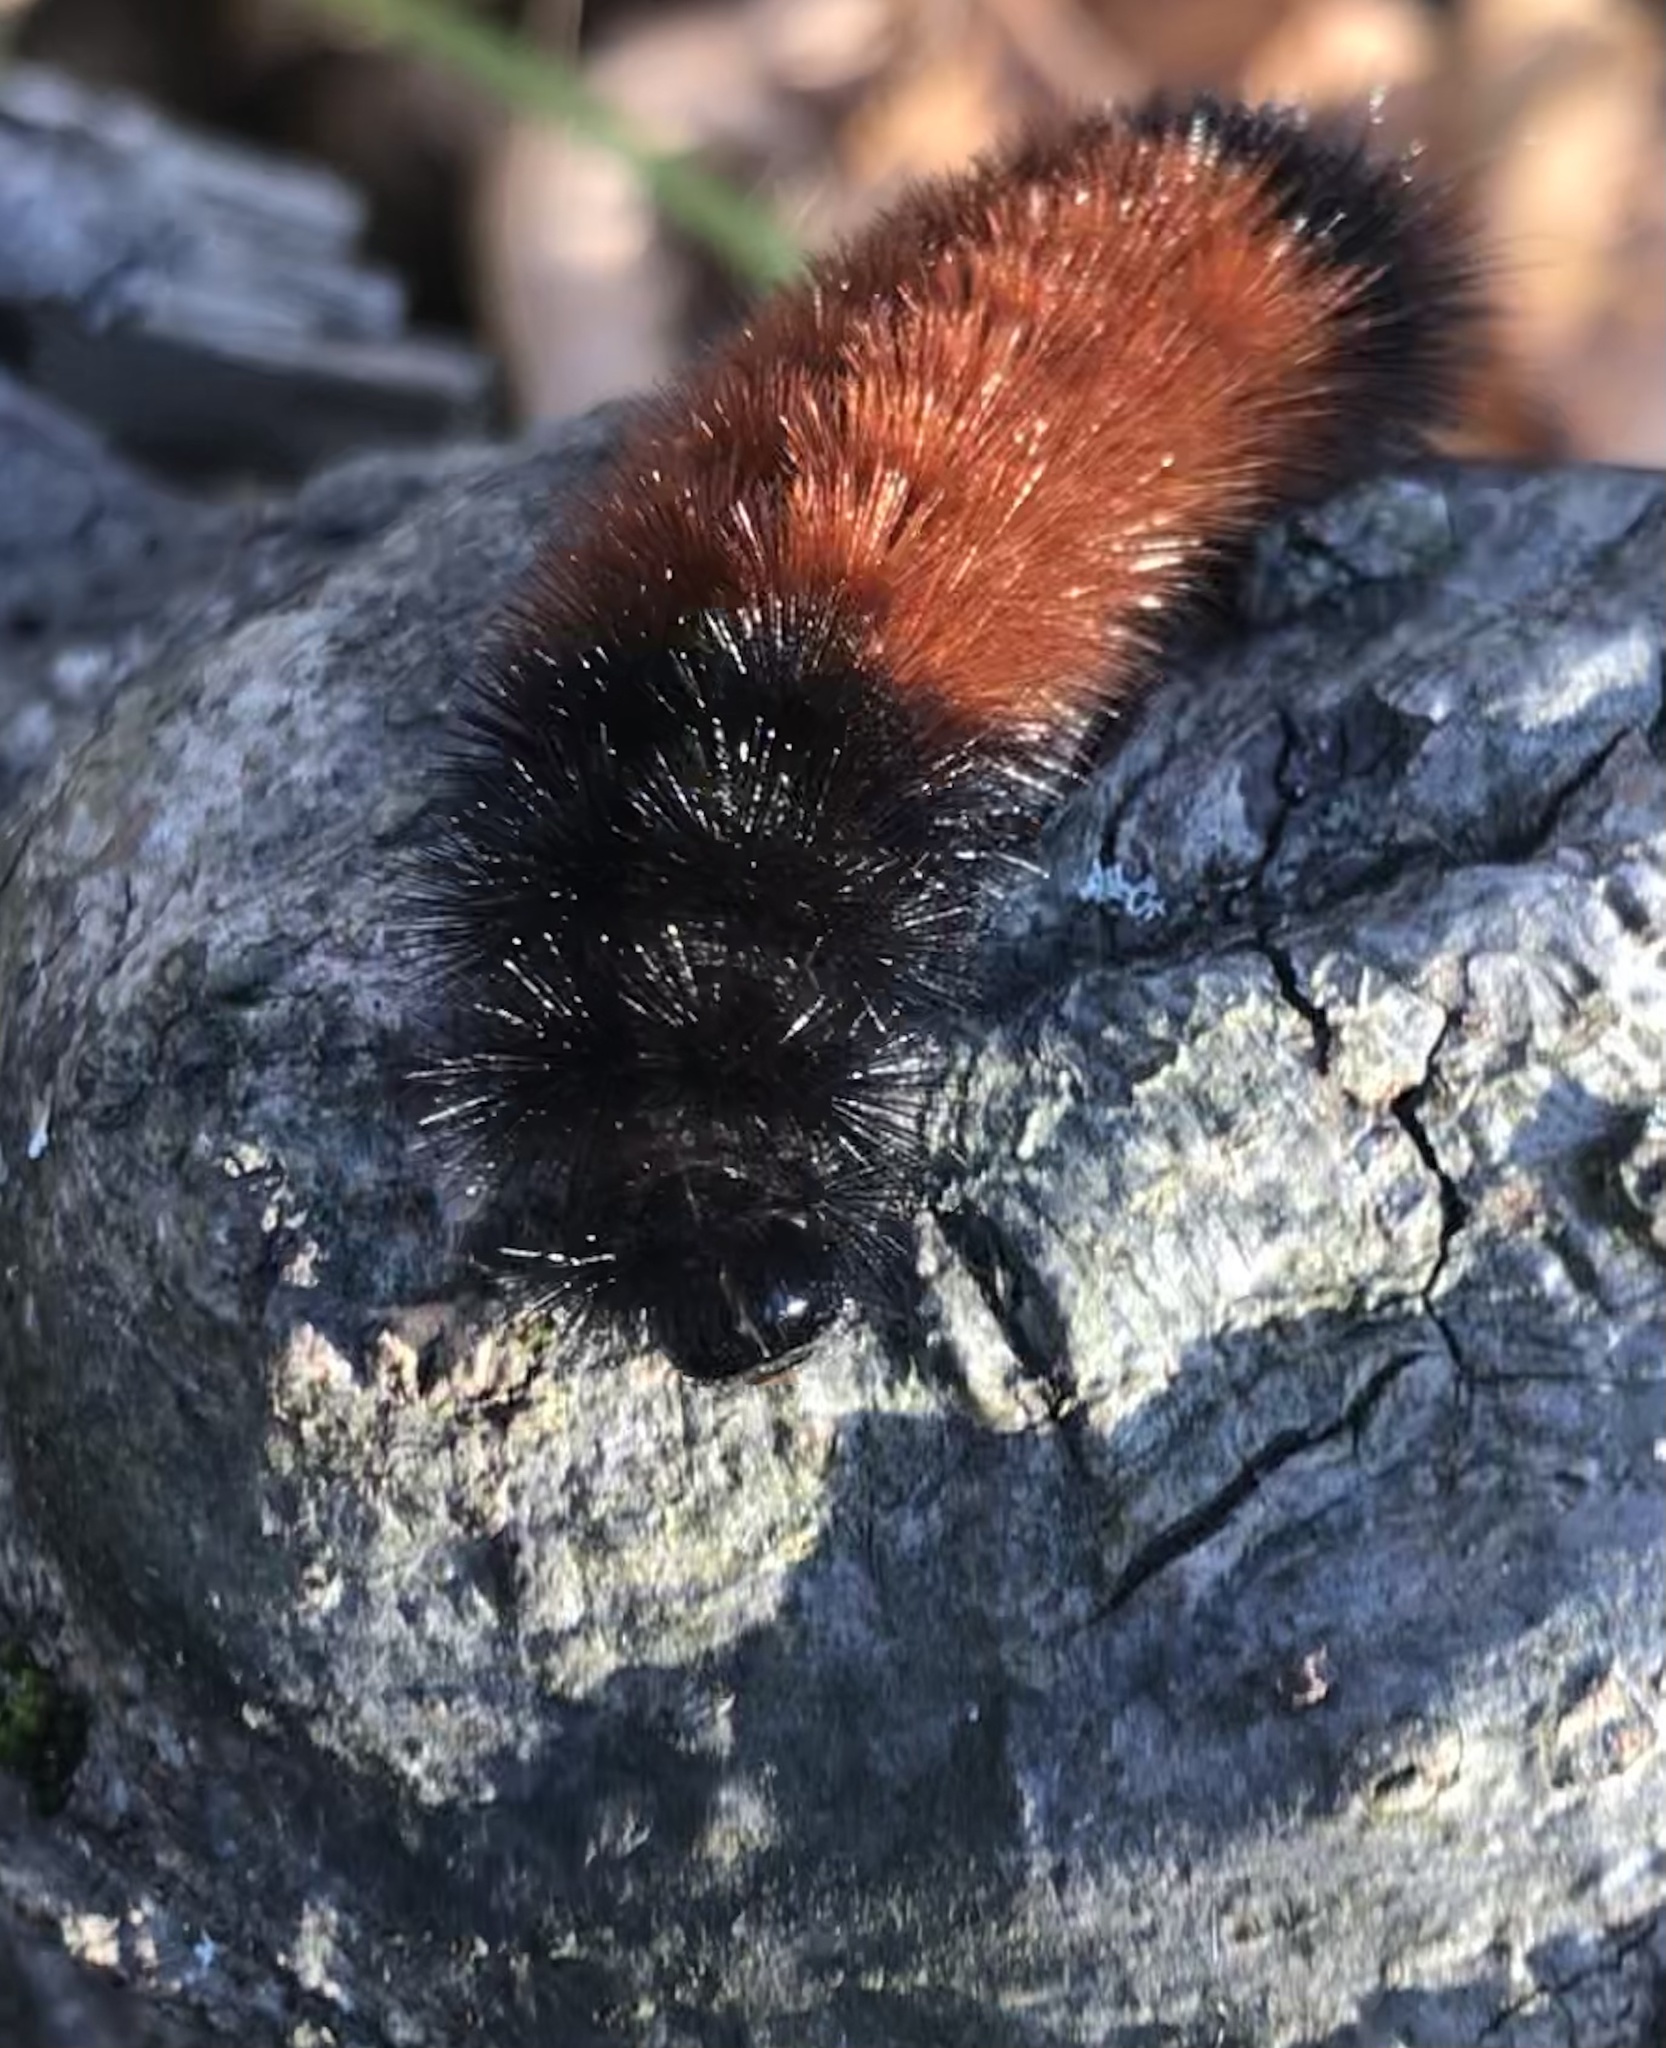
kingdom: Animalia
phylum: Arthropoda
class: Insecta
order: Lepidoptera
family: Erebidae
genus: Pyrrharctia
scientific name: Pyrrharctia isabella
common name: Isabella tiger moth
